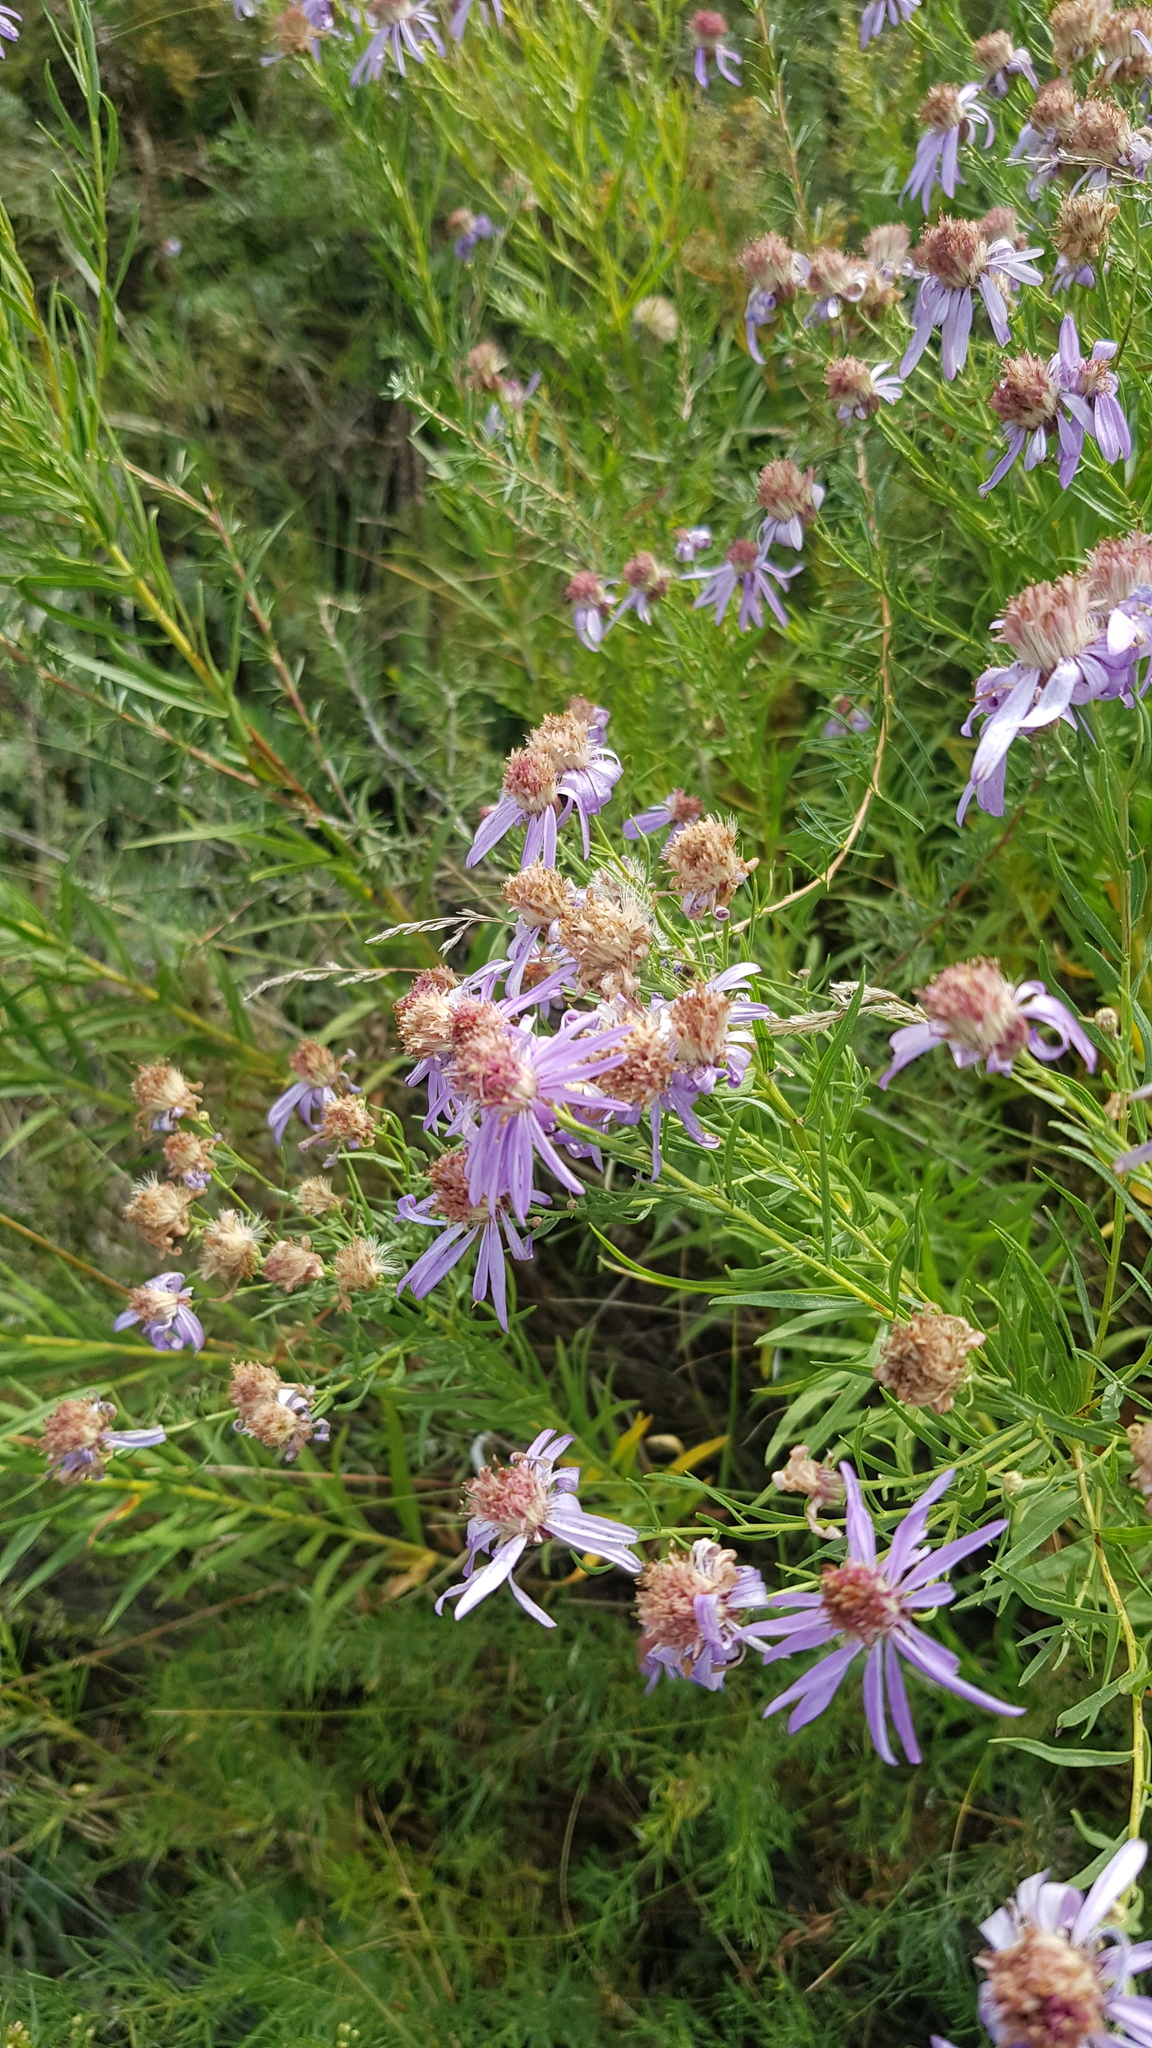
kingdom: Plantae
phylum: Tracheophyta
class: Magnoliopsida
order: Asterales
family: Asteraceae
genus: Galatella
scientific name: Galatella dahurica
